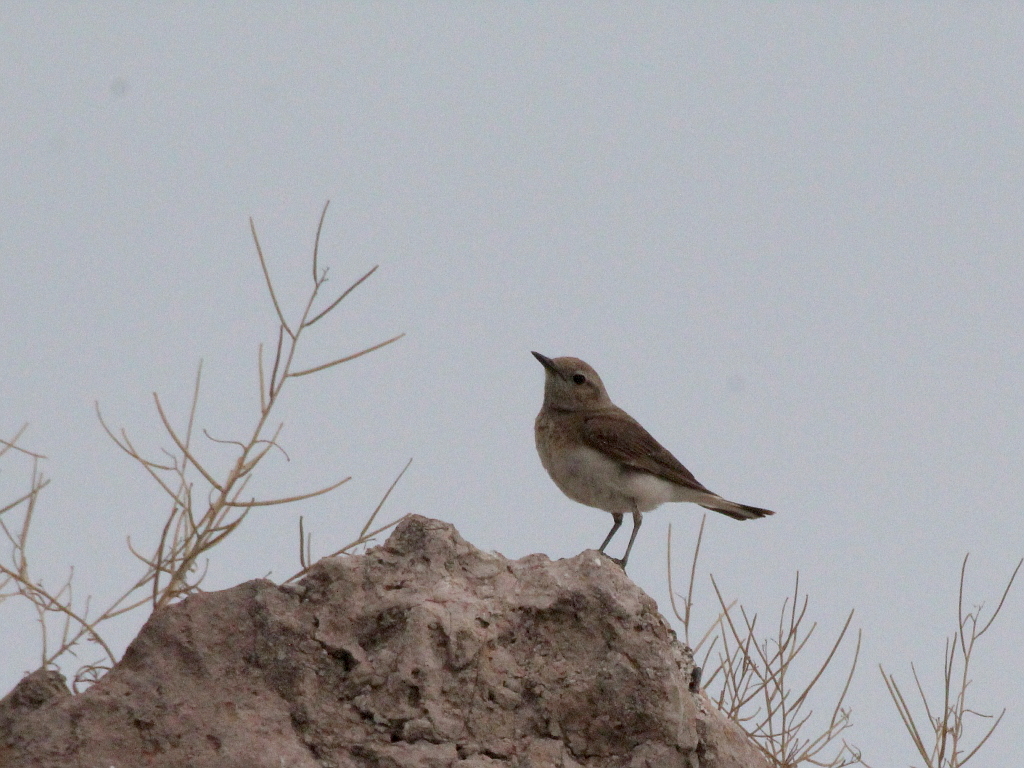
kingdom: Animalia
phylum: Chordata
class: Aves
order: Passeriformes
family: Muscicapidae
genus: Oenanthe
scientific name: Oenanthe pleschanka
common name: Pied wheatear
